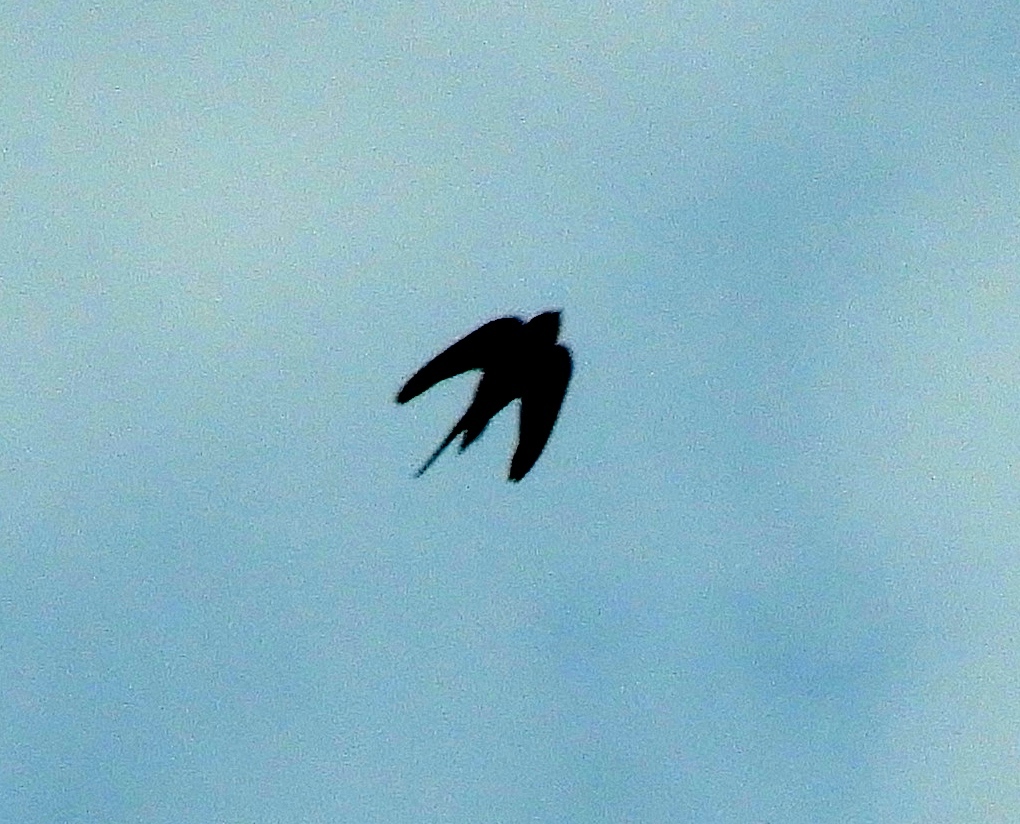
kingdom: Animalia
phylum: Chordata
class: Aves
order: Passeriformes
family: Hirundinidae
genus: Hirundo
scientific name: Hirundo rustica
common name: Barn swallow
